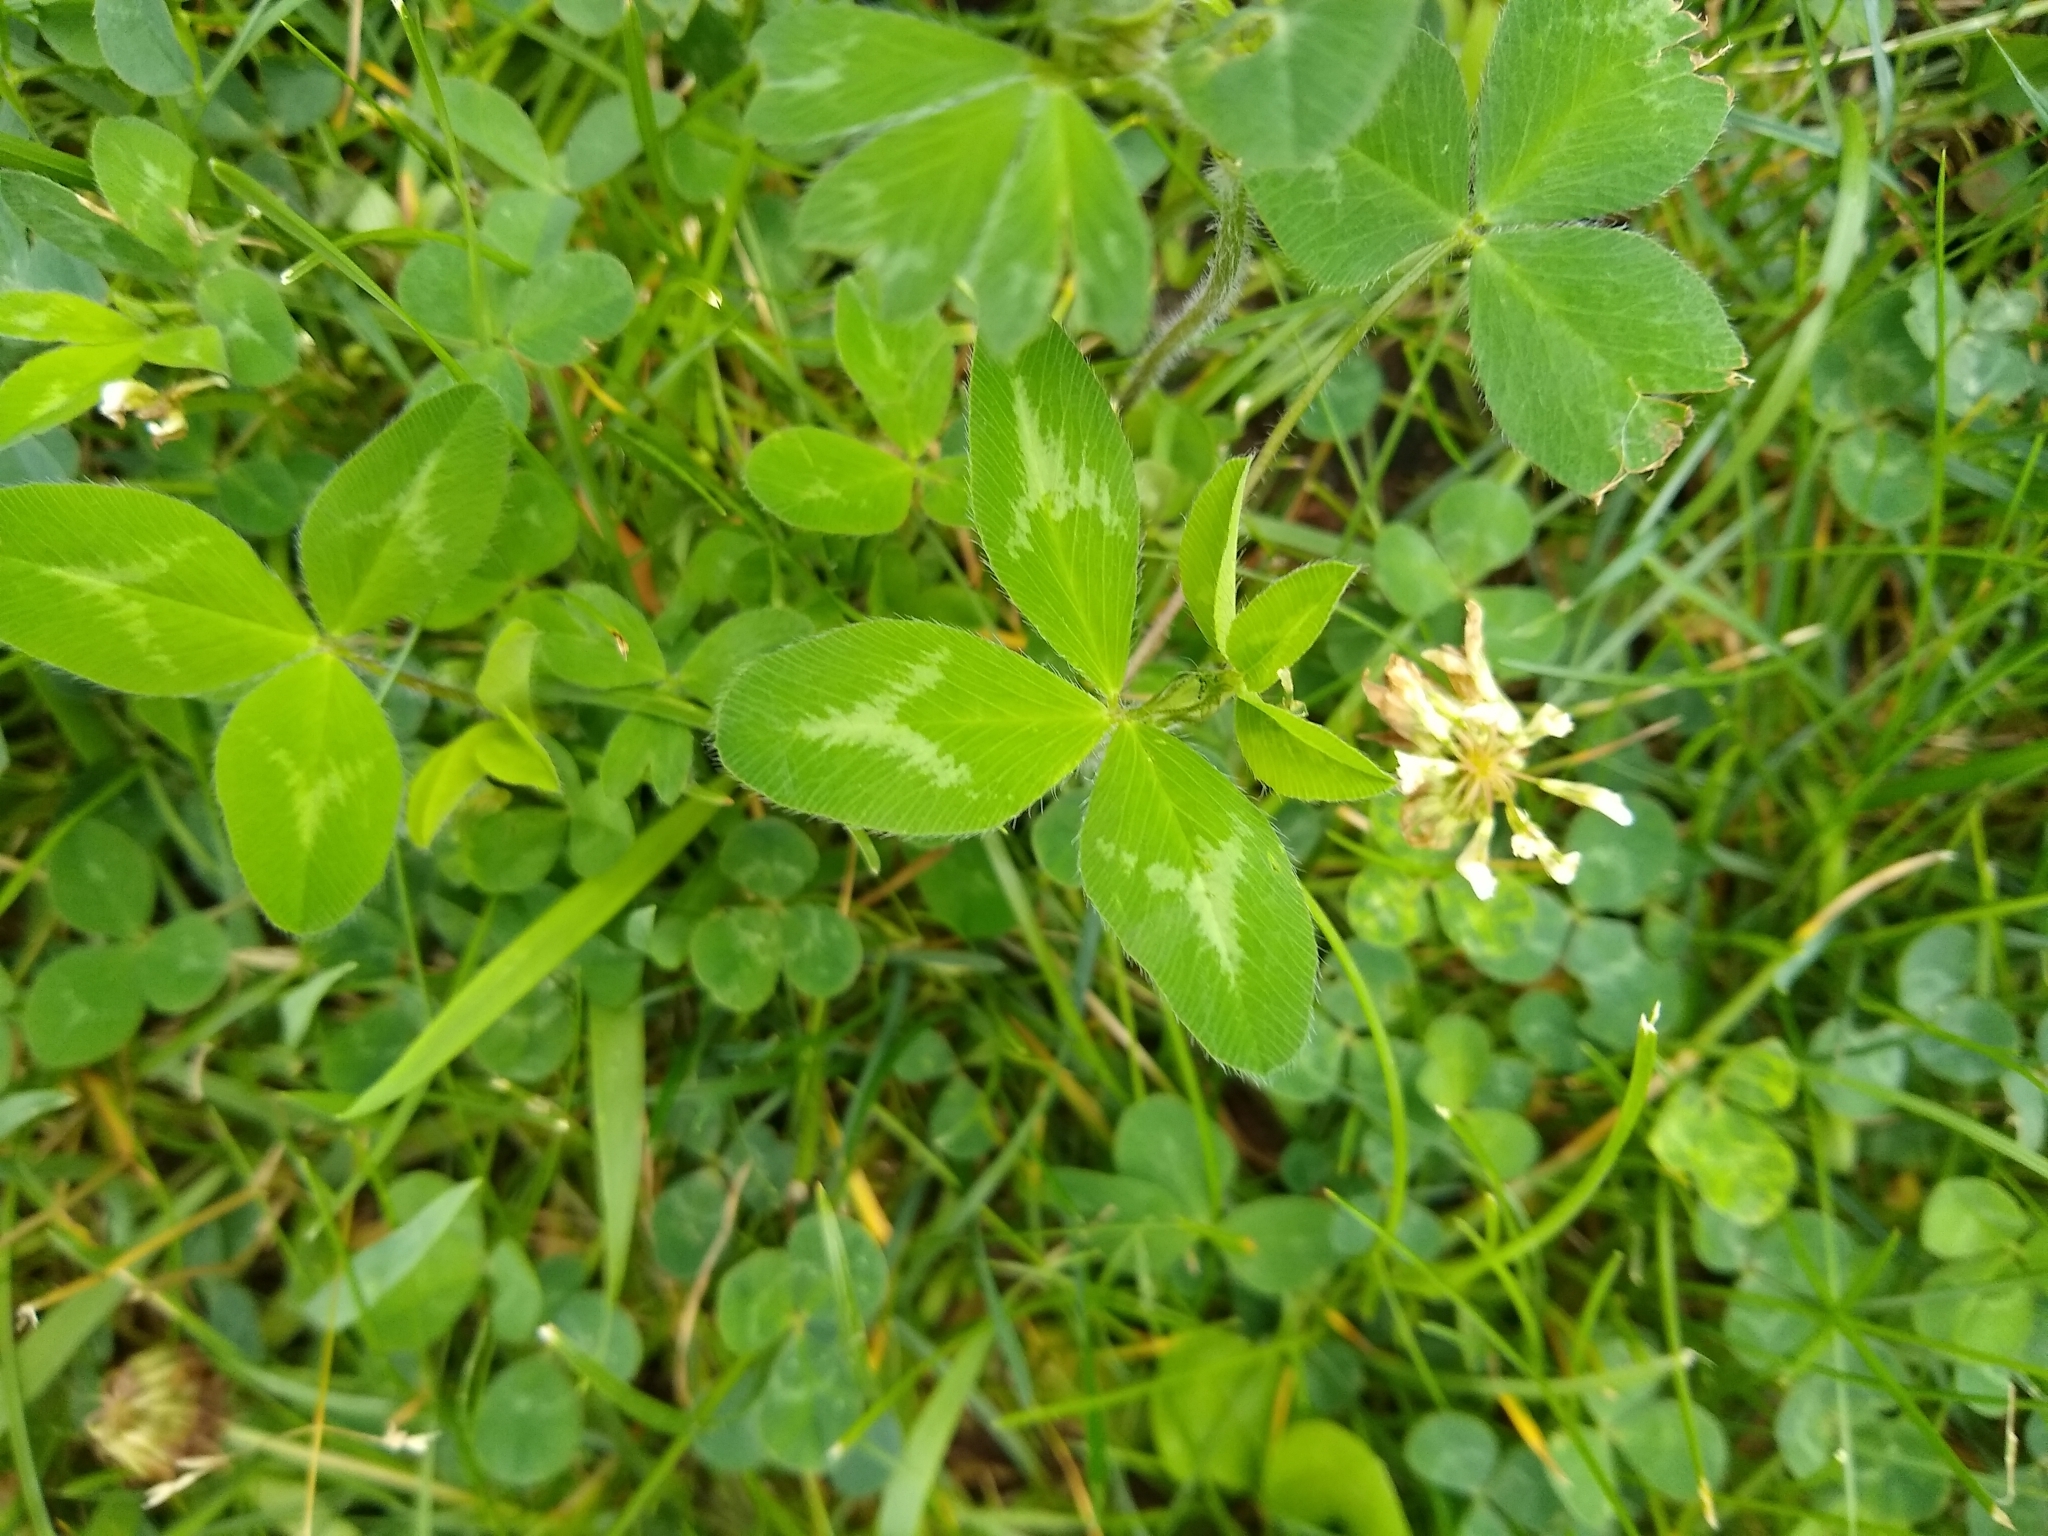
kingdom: Plantae
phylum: Tracheophyta
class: Magnoliopsida
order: Fabales
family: Fabaceae
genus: Trifolium
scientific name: Trifolium pratense
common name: Red clover
